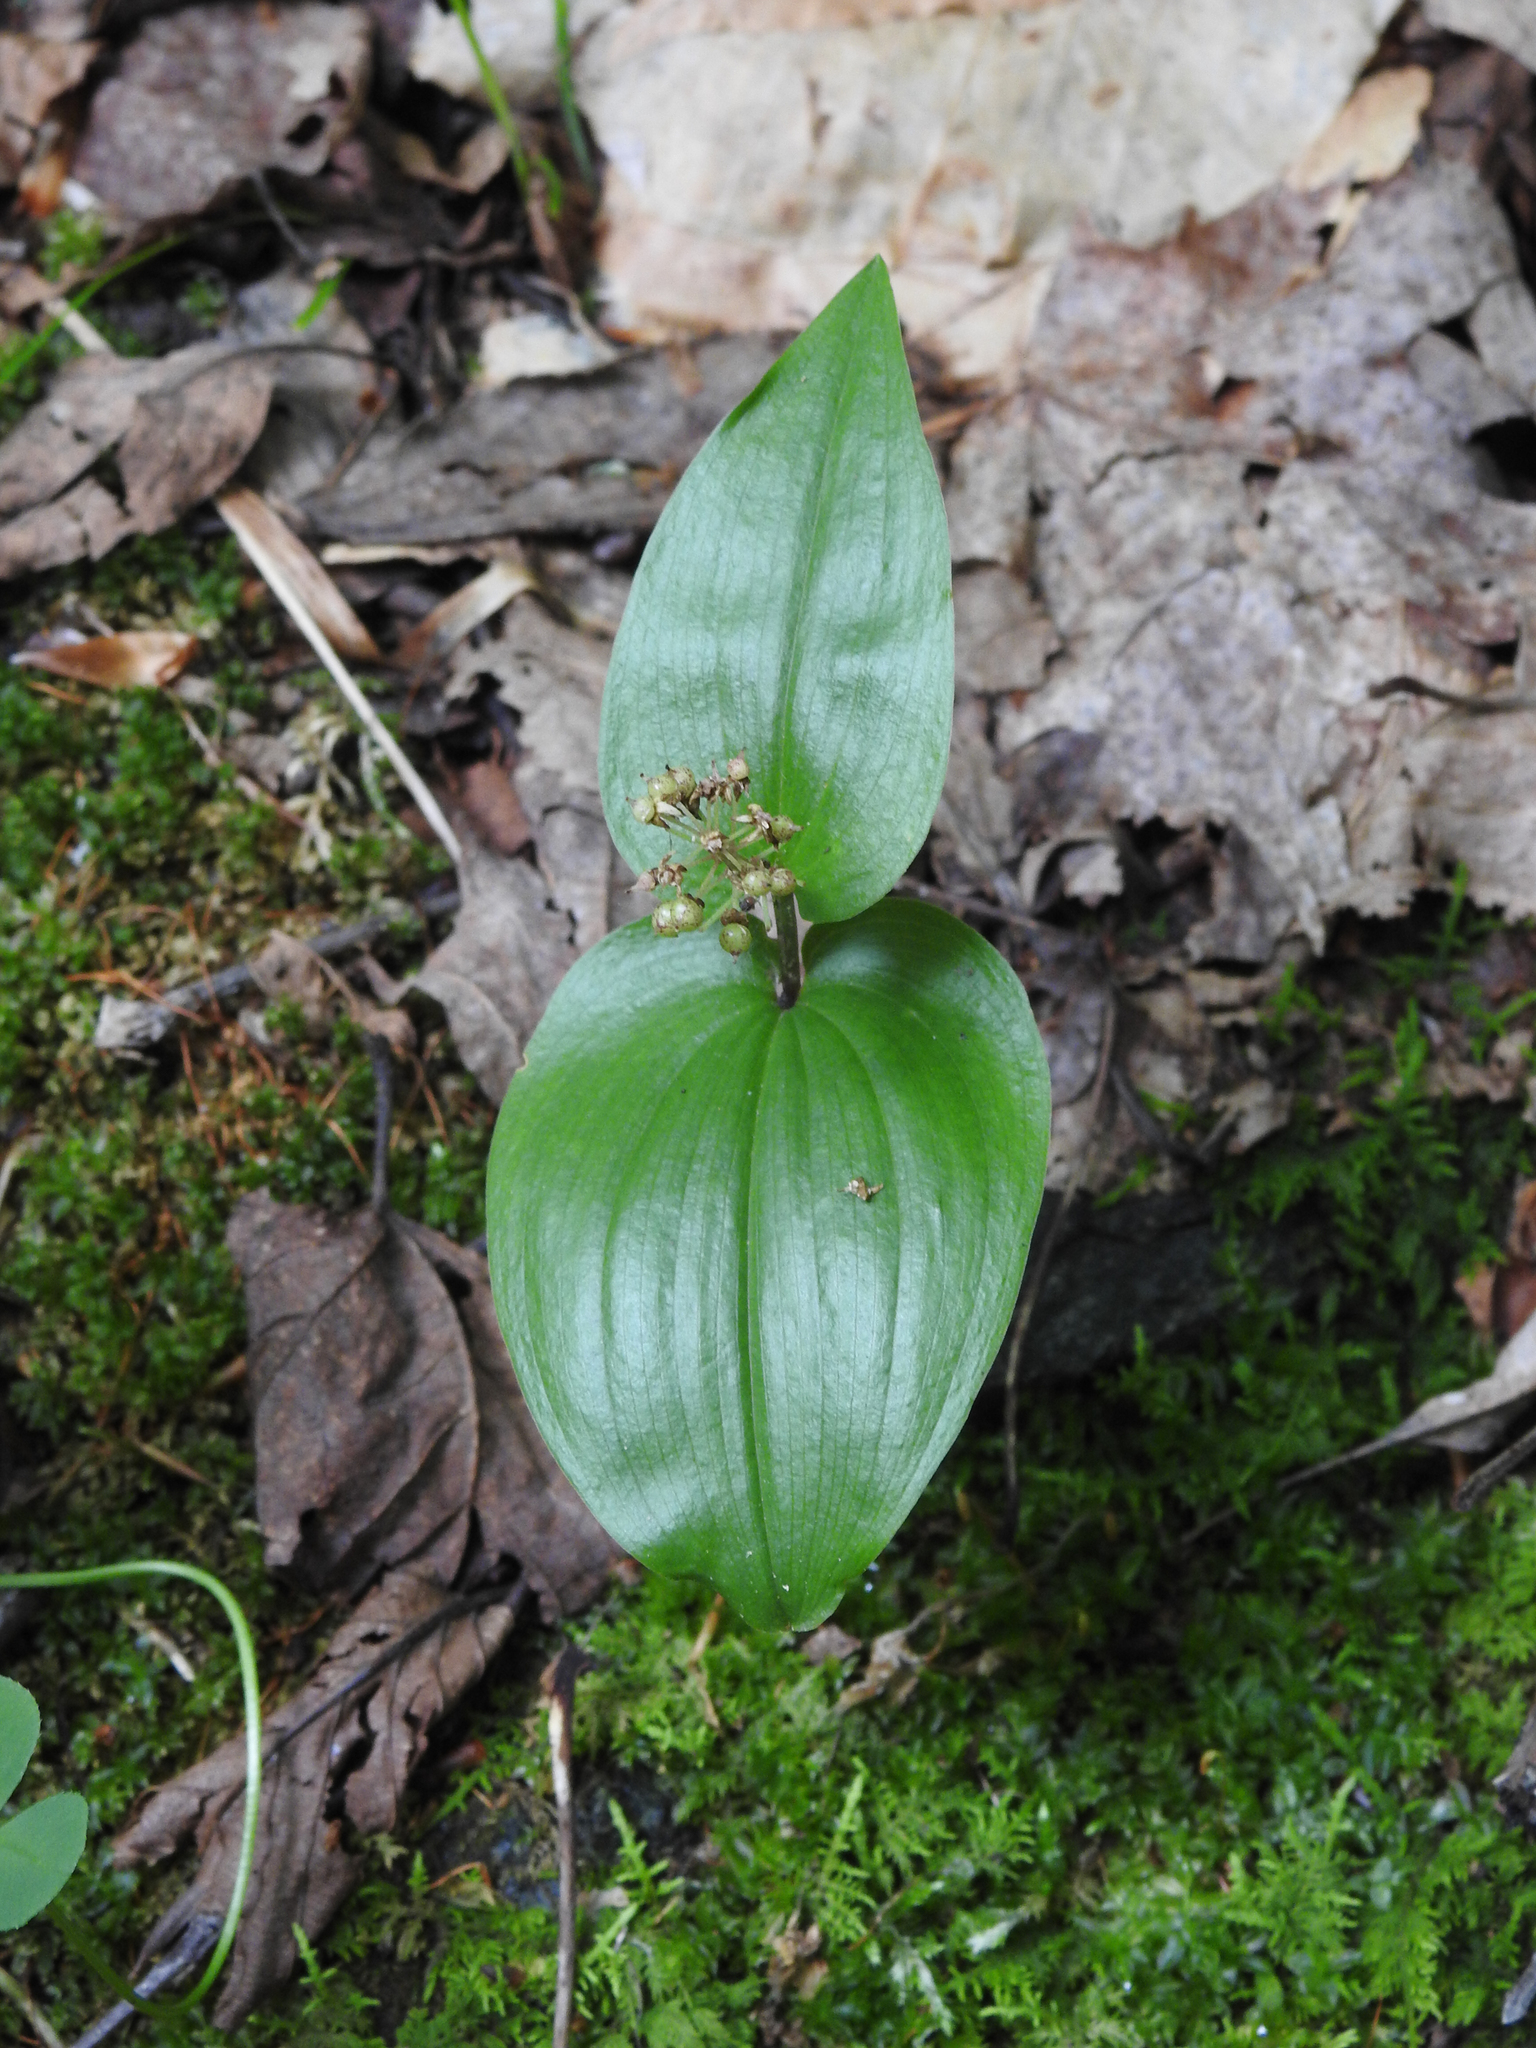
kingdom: Plantae
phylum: Tracheophyta
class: Liliopsida
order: Asparagales
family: Asparagaceae
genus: Maianthemum
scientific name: Maianthemum canadense
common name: False lily-of-the-valley
